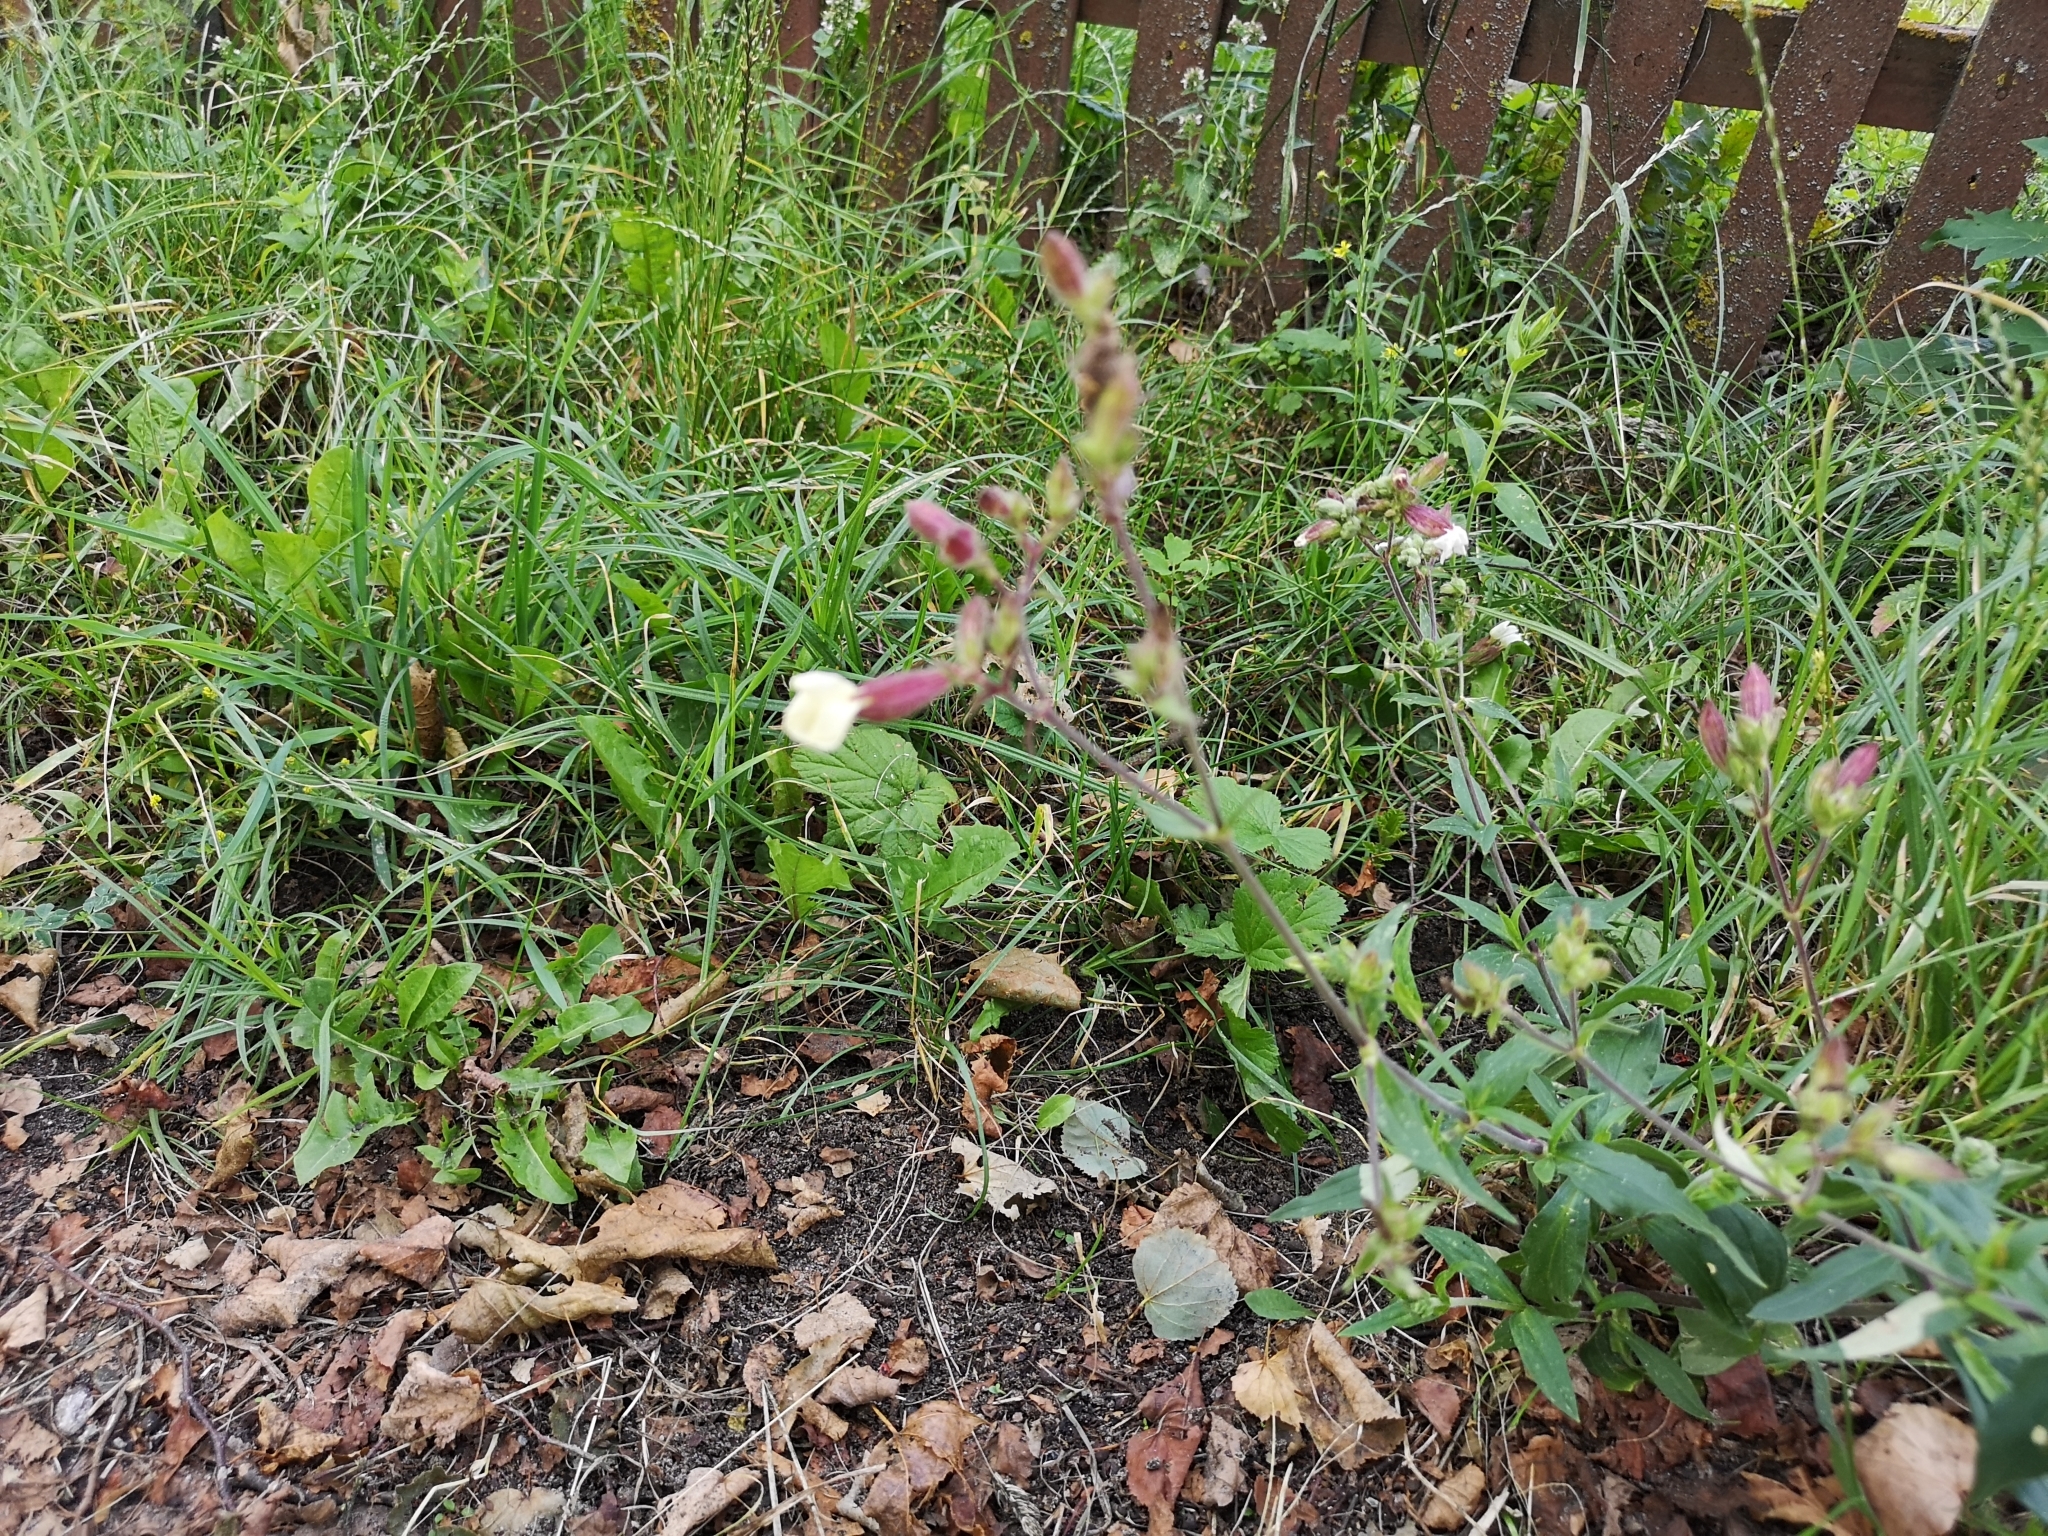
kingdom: Plantae
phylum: Tracheophyta
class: Magnoliopsida
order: Caryophyllales
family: Caryophyllaceae
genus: Silene
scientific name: Silene latifolia
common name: White campion
